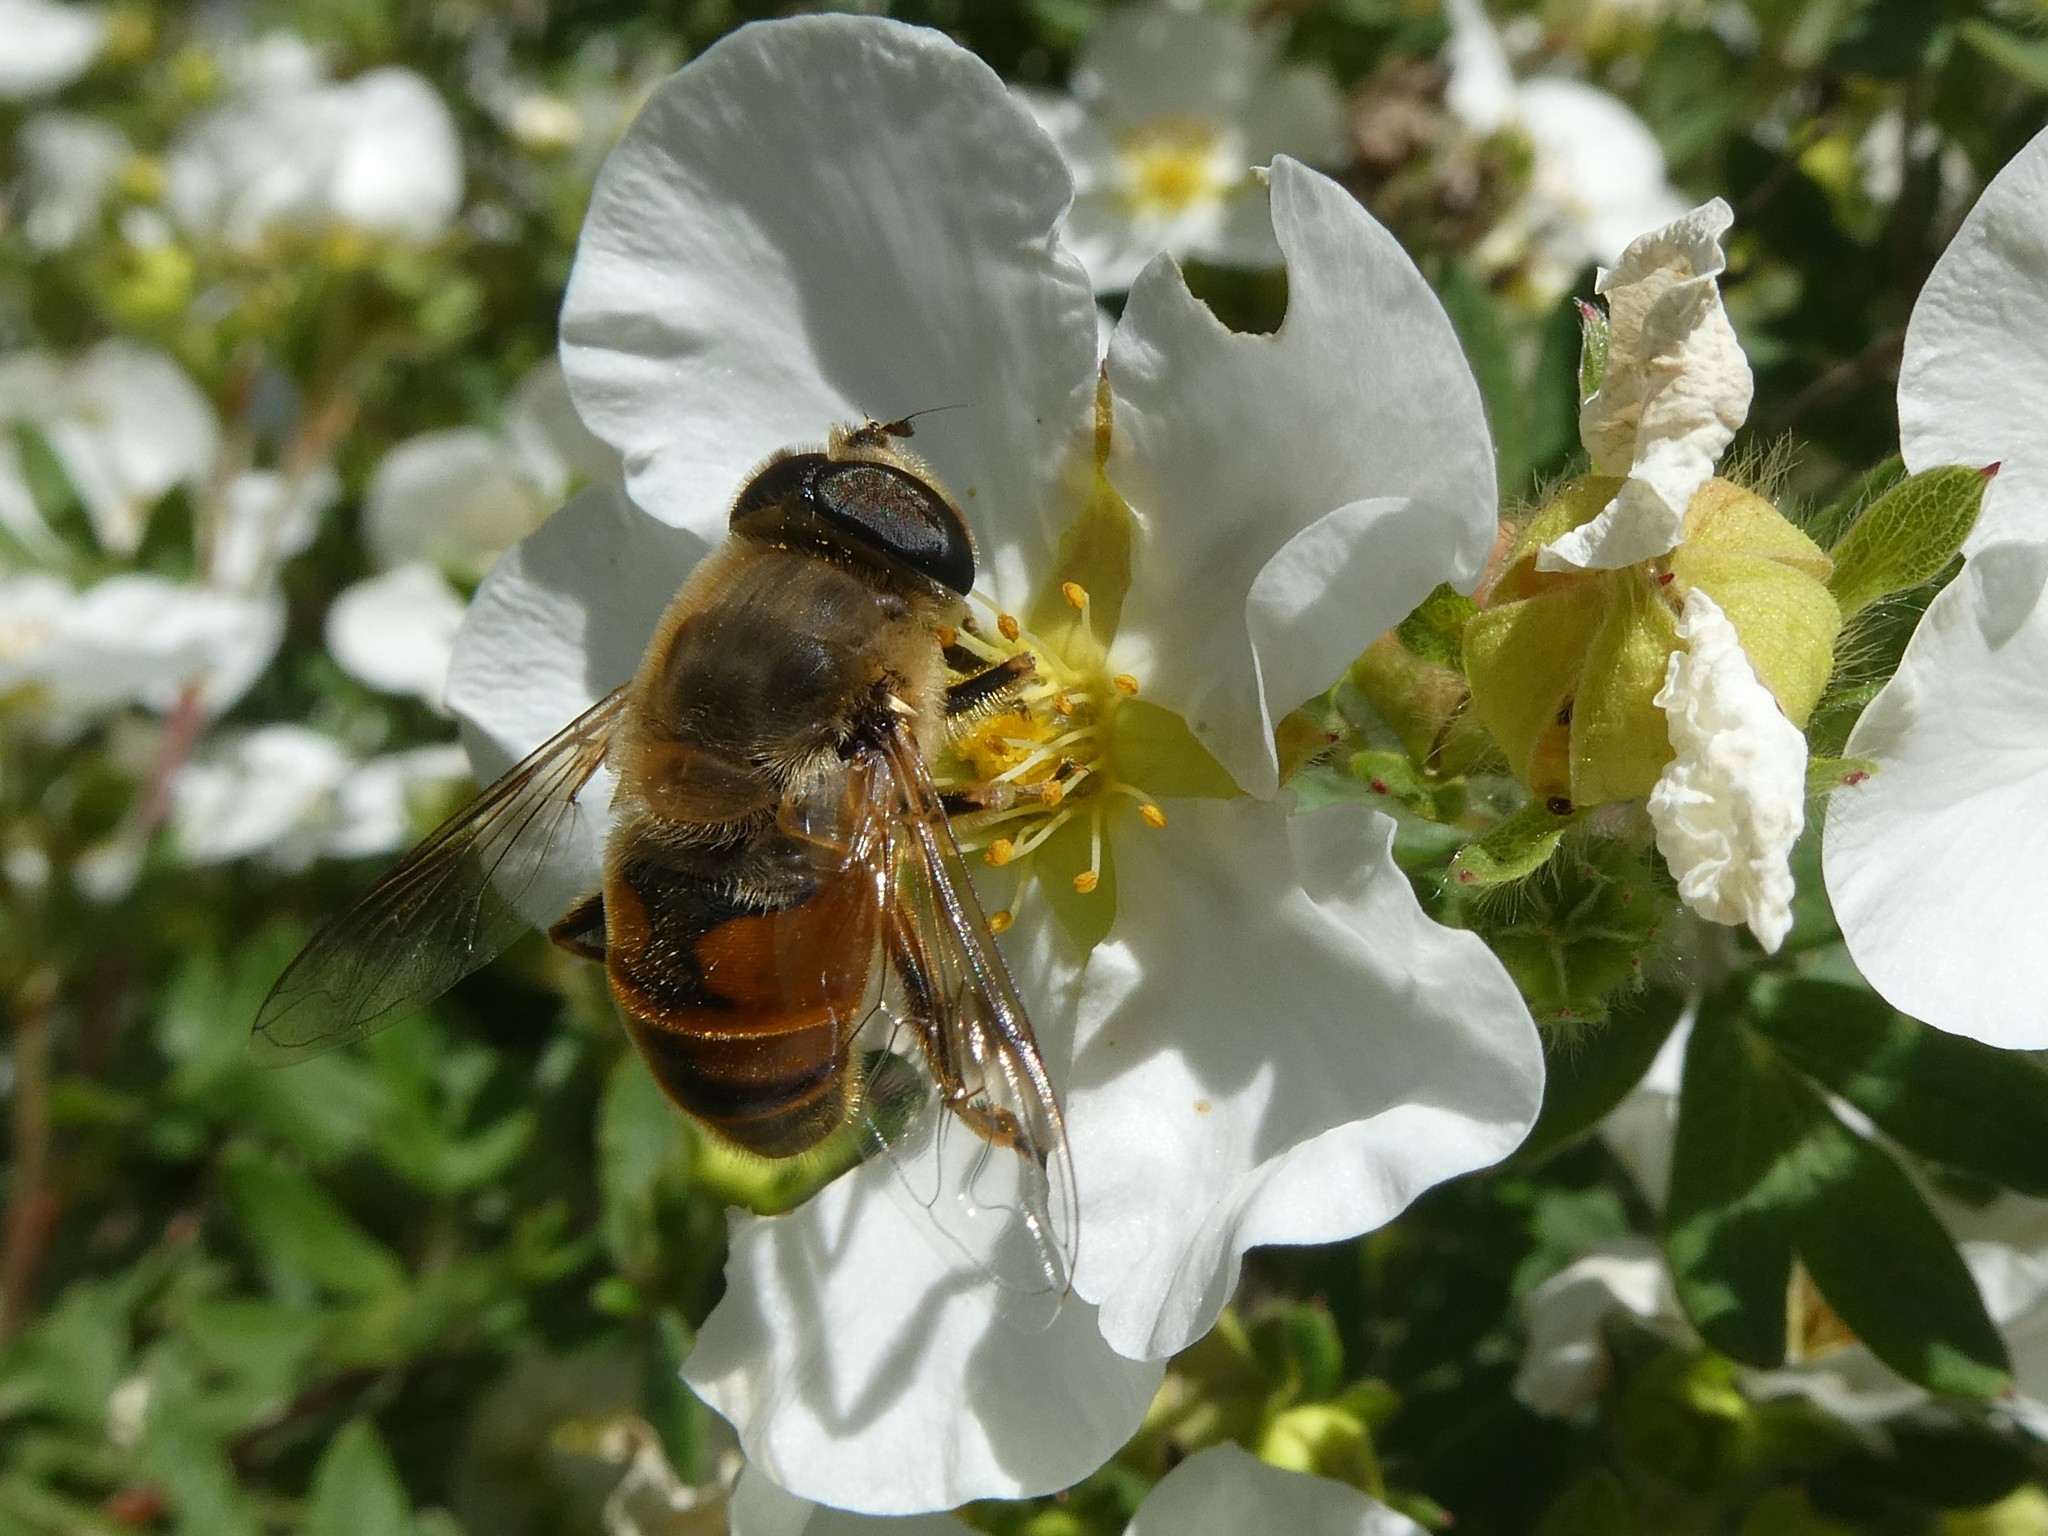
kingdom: Animalia
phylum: Arthropoda
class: Insecta
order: Diptera
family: Syrphidae
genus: Eristalis
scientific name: Eristalis tenax
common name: Drone fly
